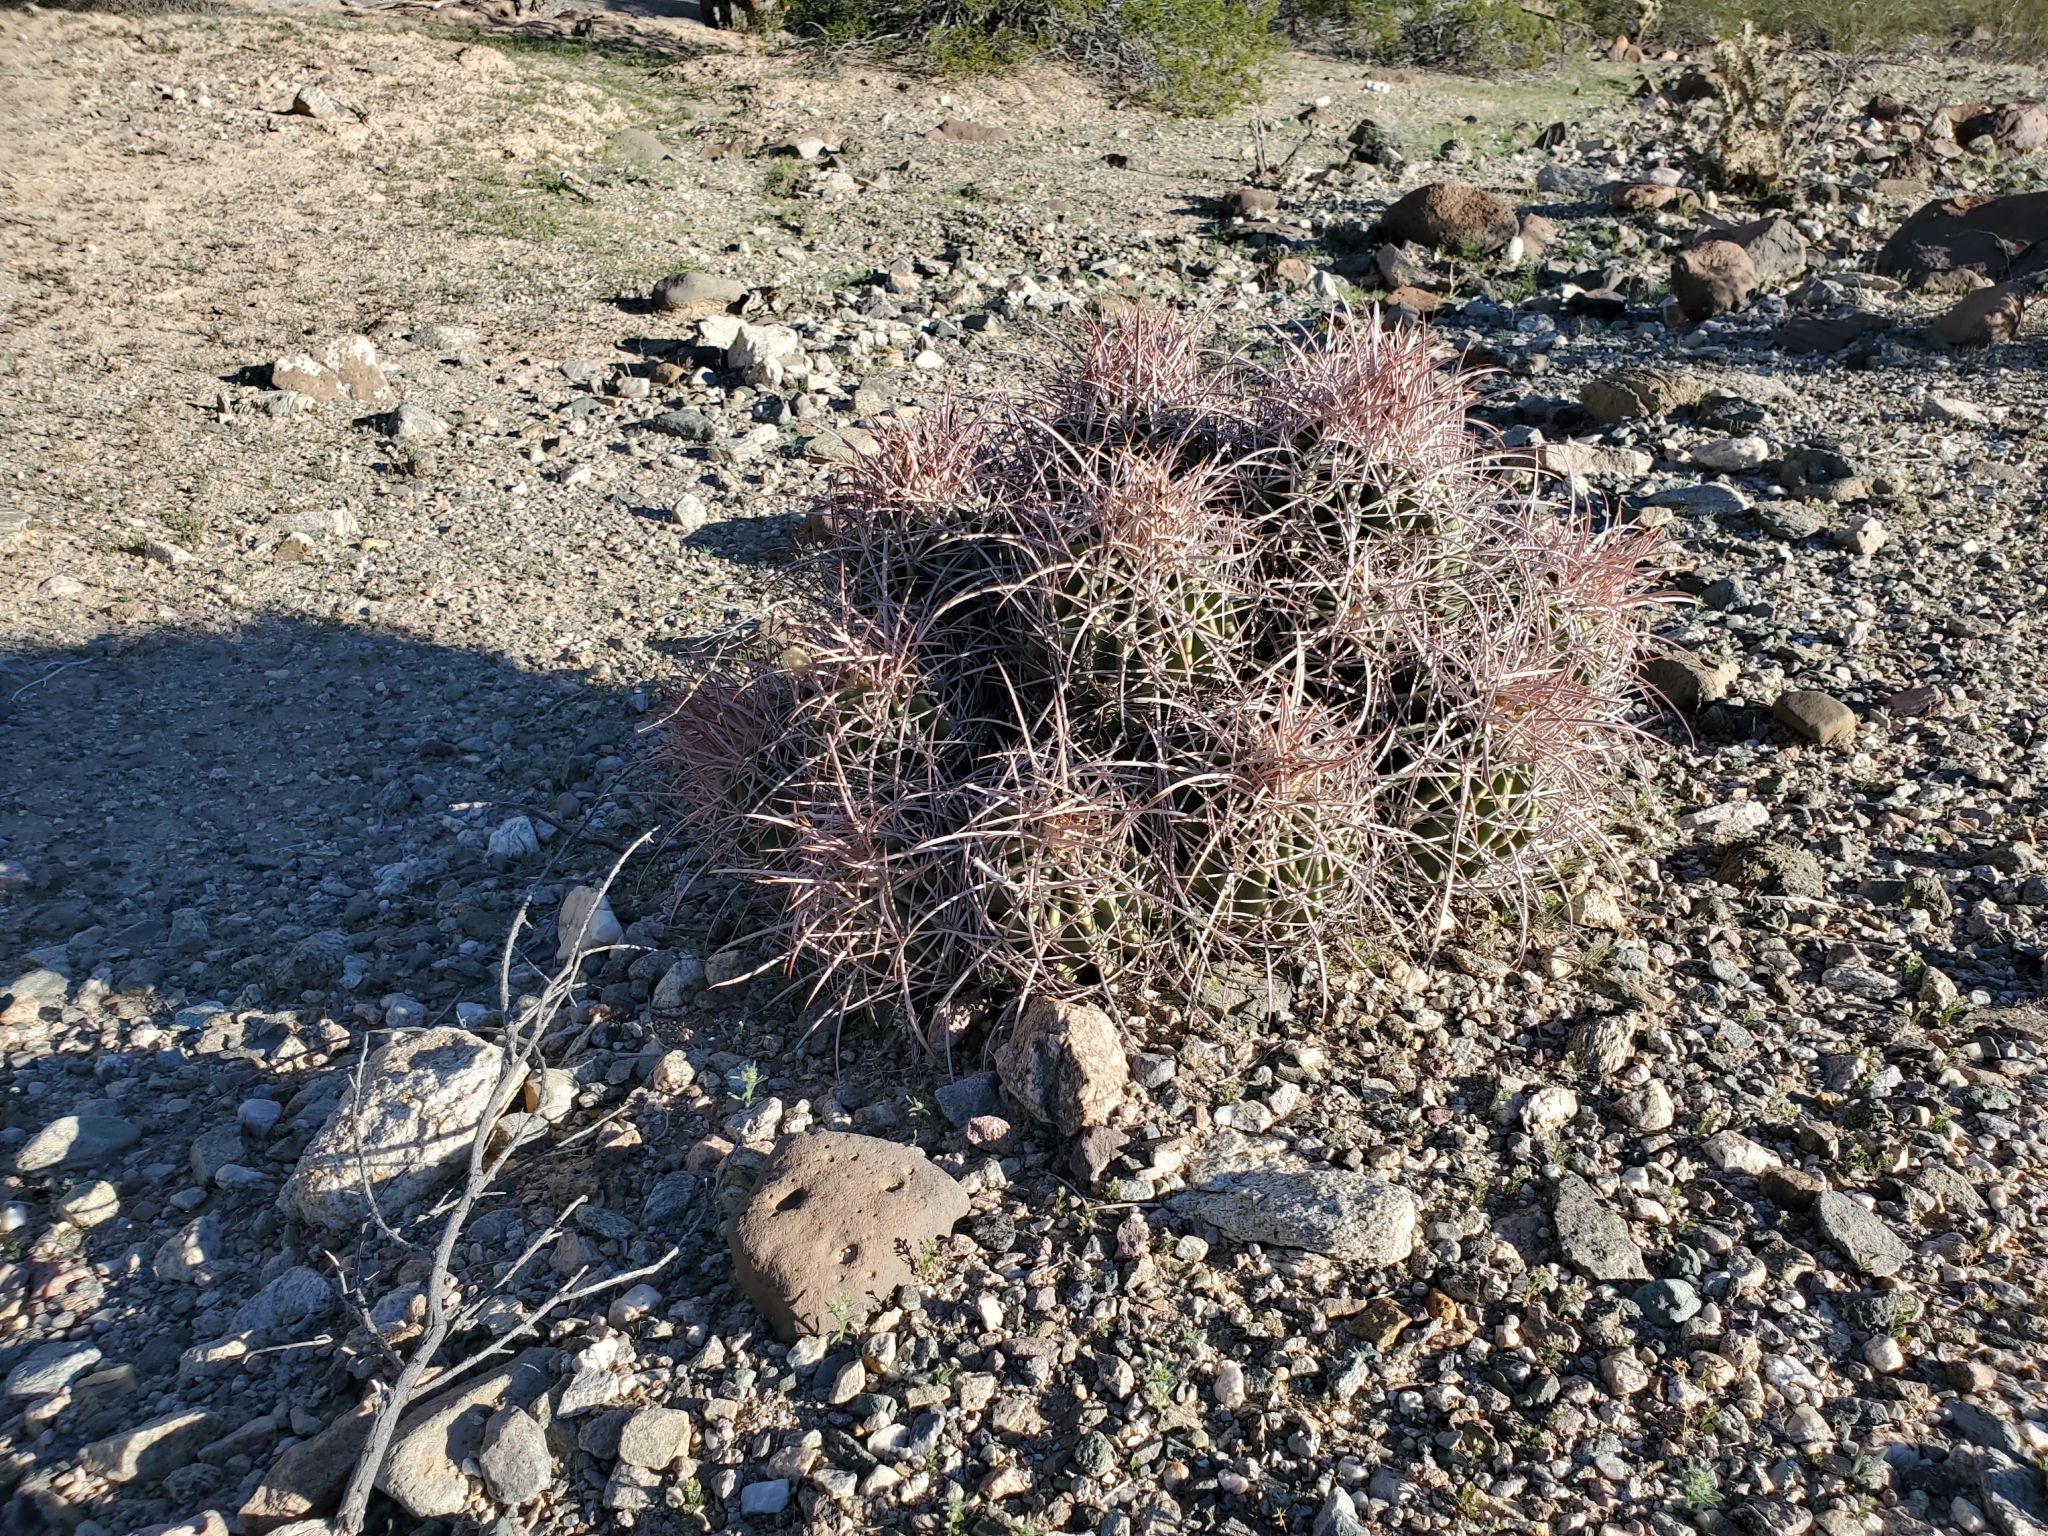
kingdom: Plantae
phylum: Tracheophyta
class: Magnoliopsida
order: Caryophyllales
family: Cactaceae
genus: Echinocactus
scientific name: Echinocactus polycephalus
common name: Cottontop cactus
